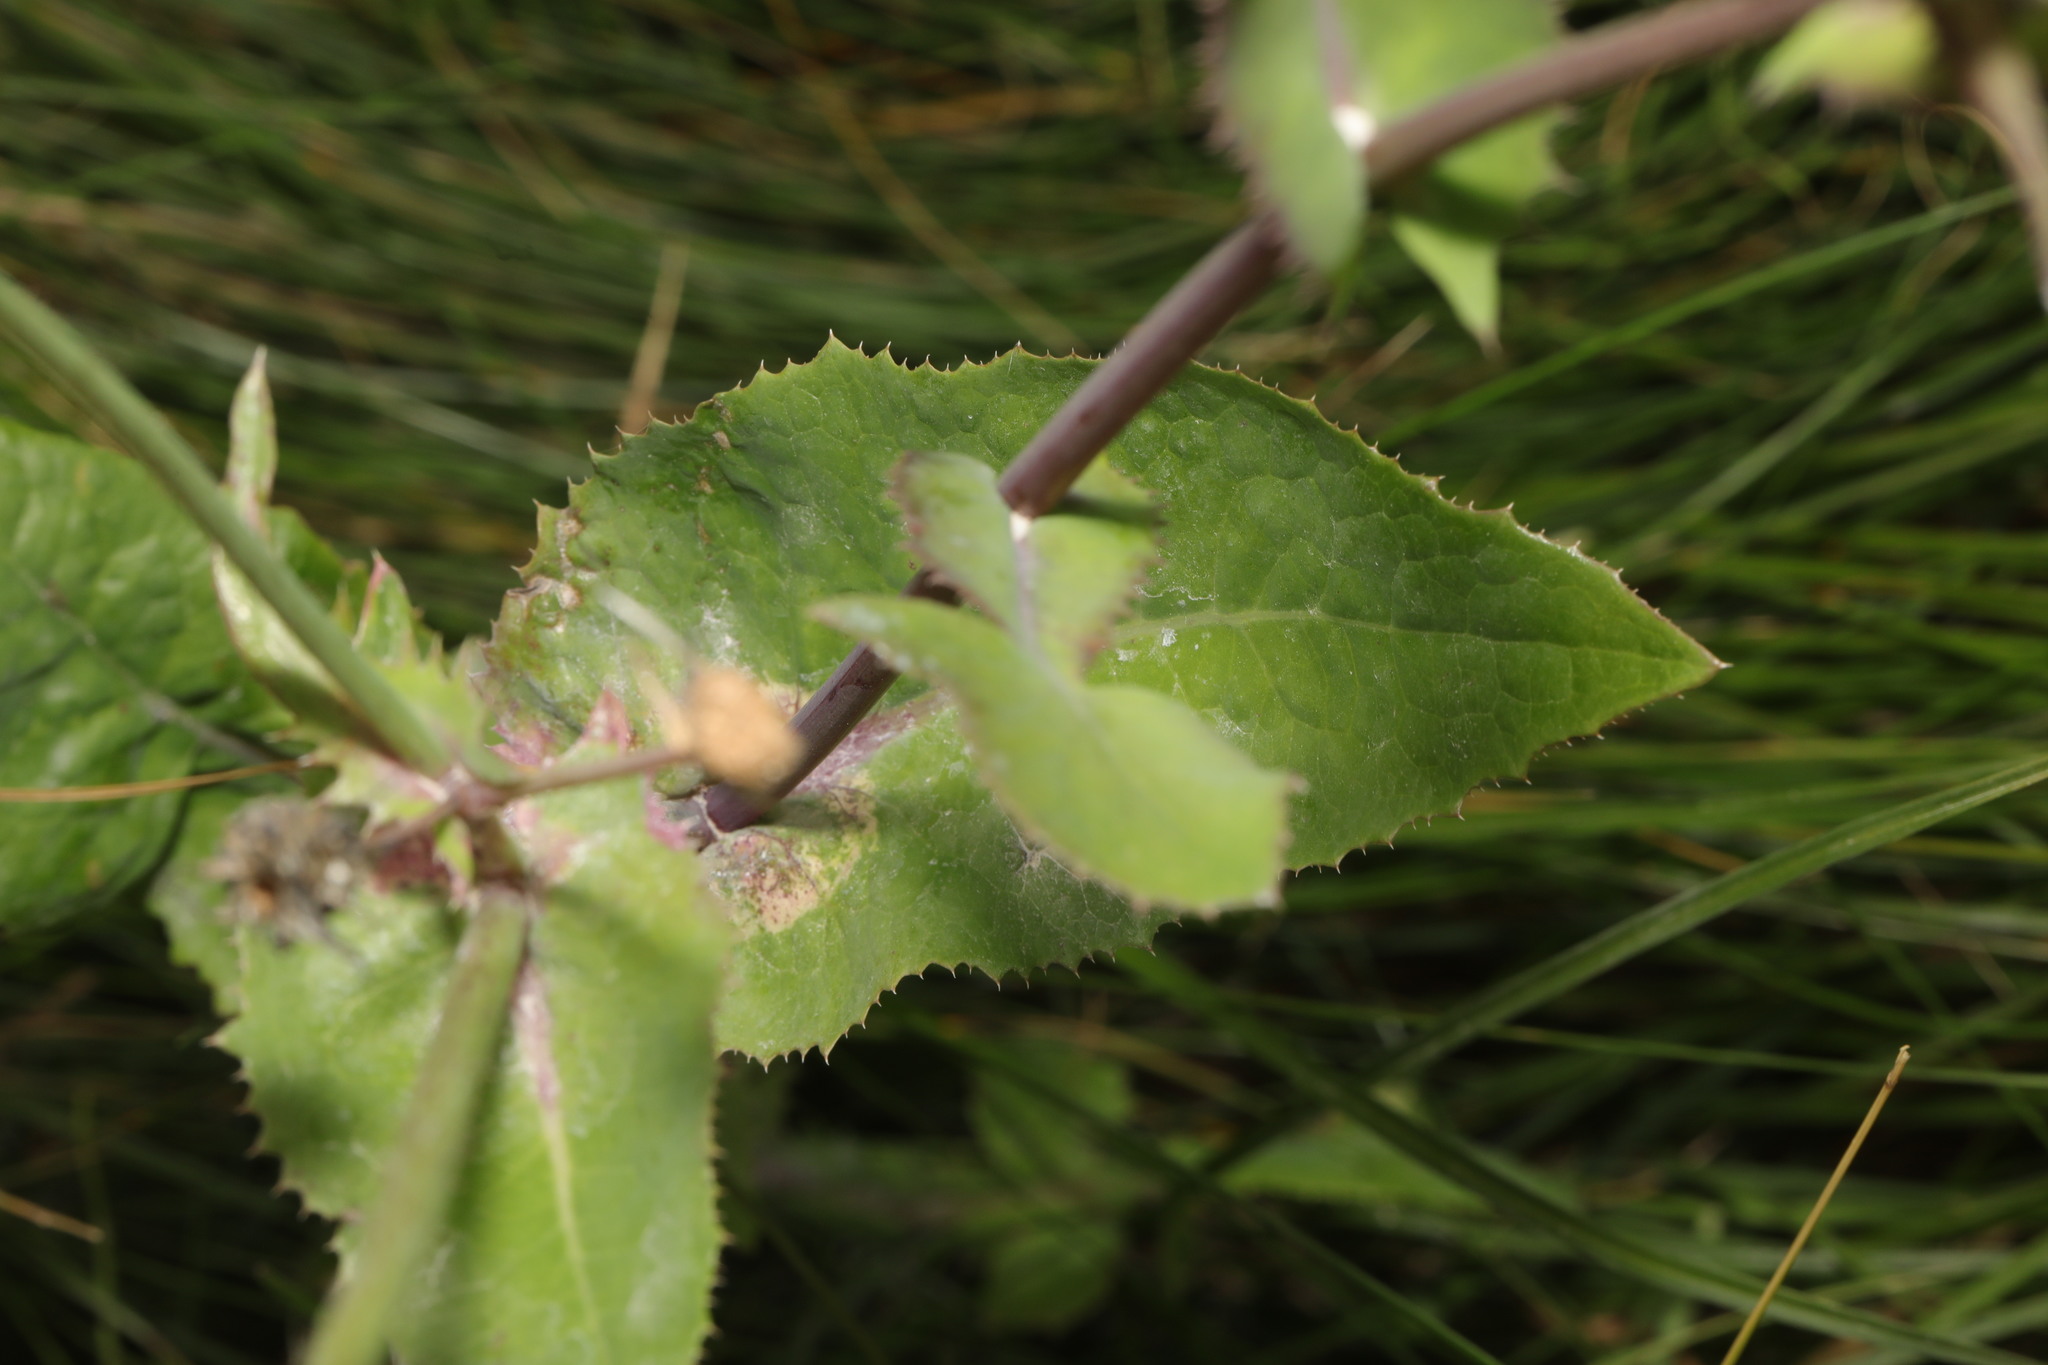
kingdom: Plantae
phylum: Tracheophyta
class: Magnoliopsida
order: Asterales
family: Asteraceae
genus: Sonchus
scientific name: Sonchus oleraceus
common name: Common sowthistle
